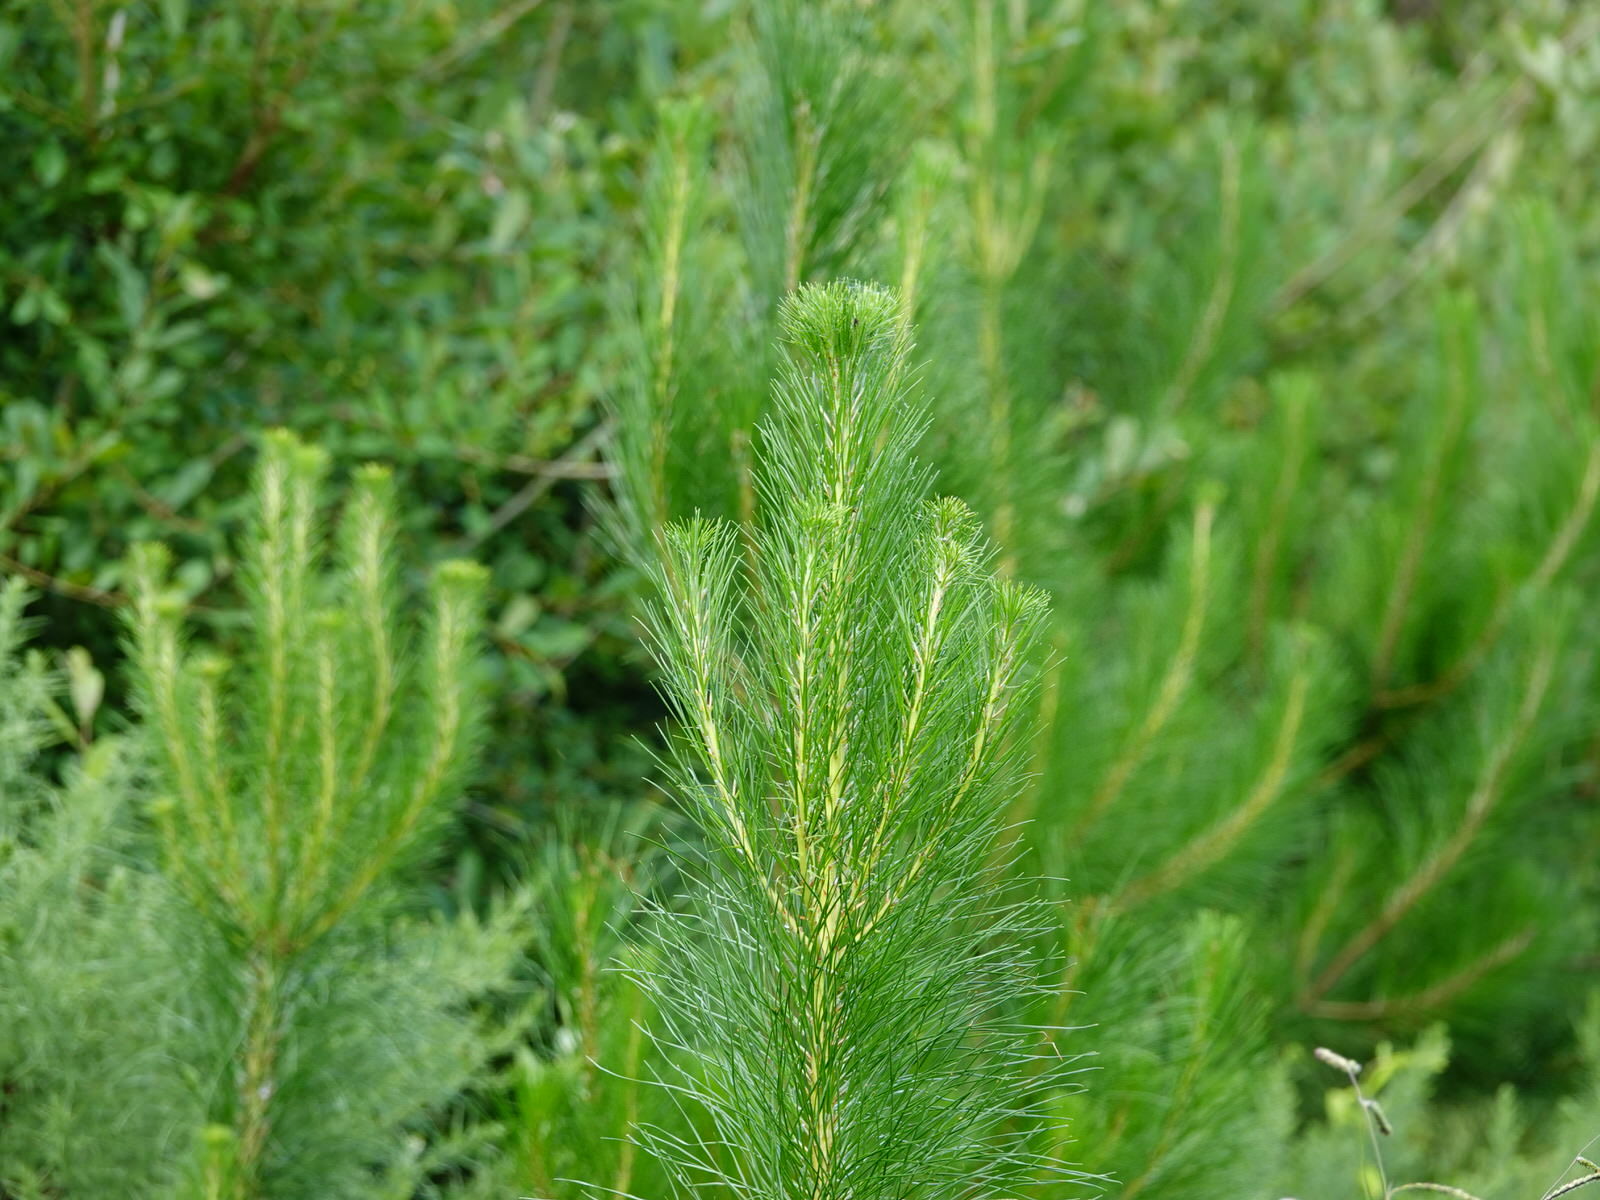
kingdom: Plantae
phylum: Tracheophyta
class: Pinopsida
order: Pinales
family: Pinaceae
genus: Pinus
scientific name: Pinus radiata
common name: Monterey pine
